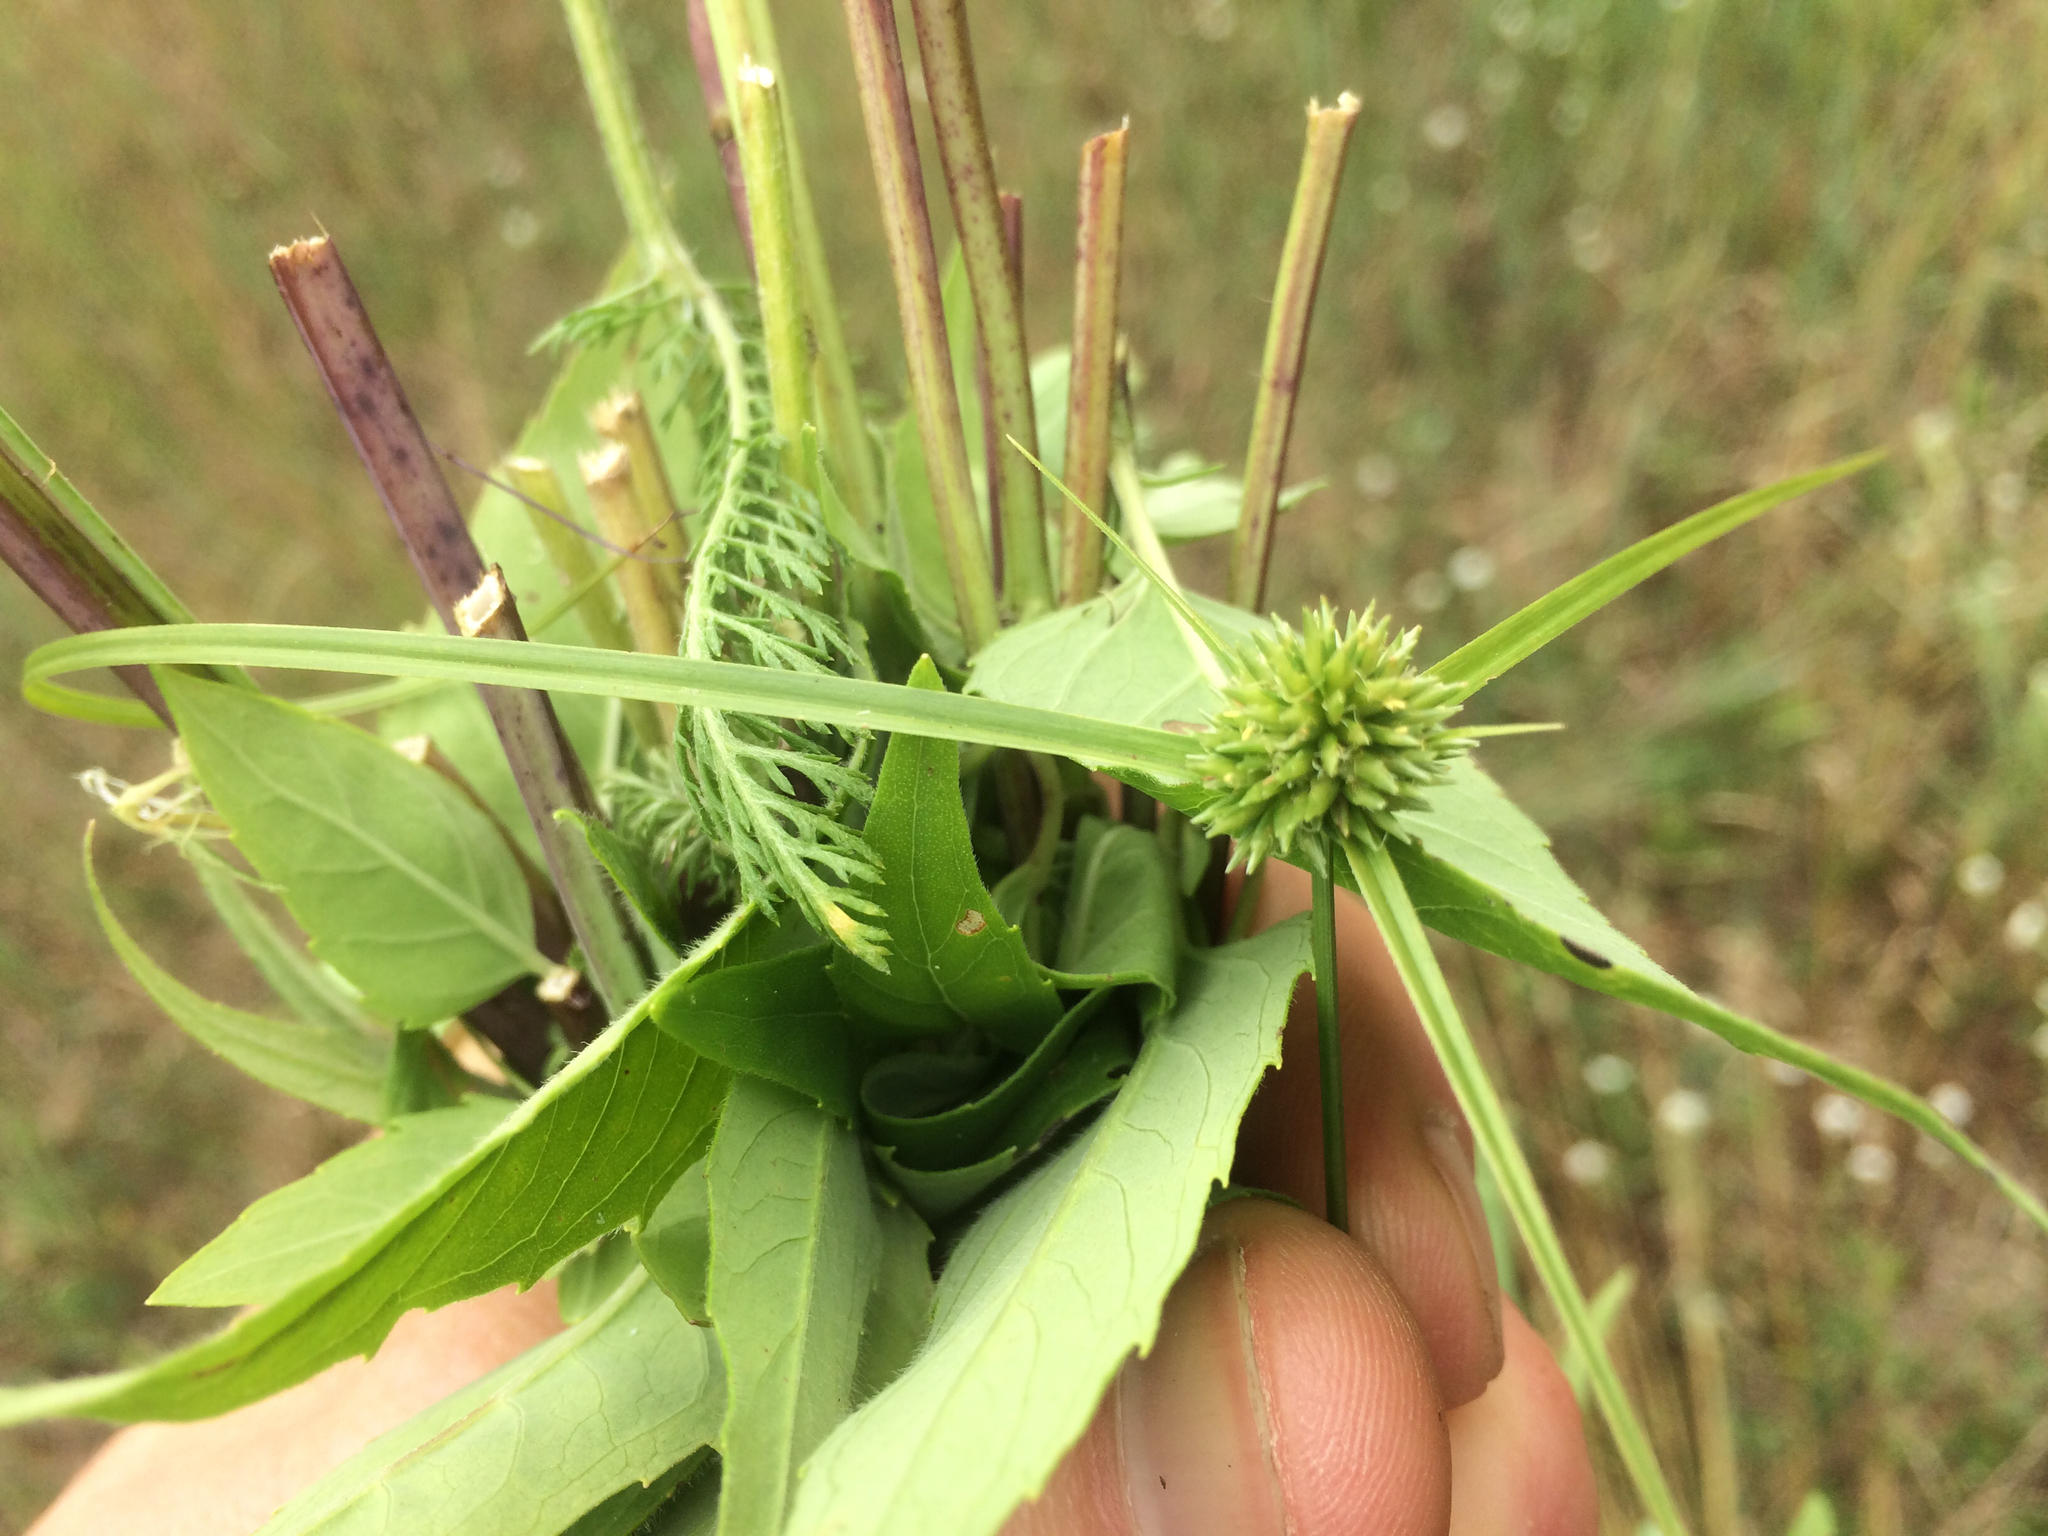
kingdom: Plantae
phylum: Tracheophyta
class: Liliopsida
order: Poales
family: Cyperaceae
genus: Cyperus
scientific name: Cyperus lupulinus
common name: Great plains flatsedge
